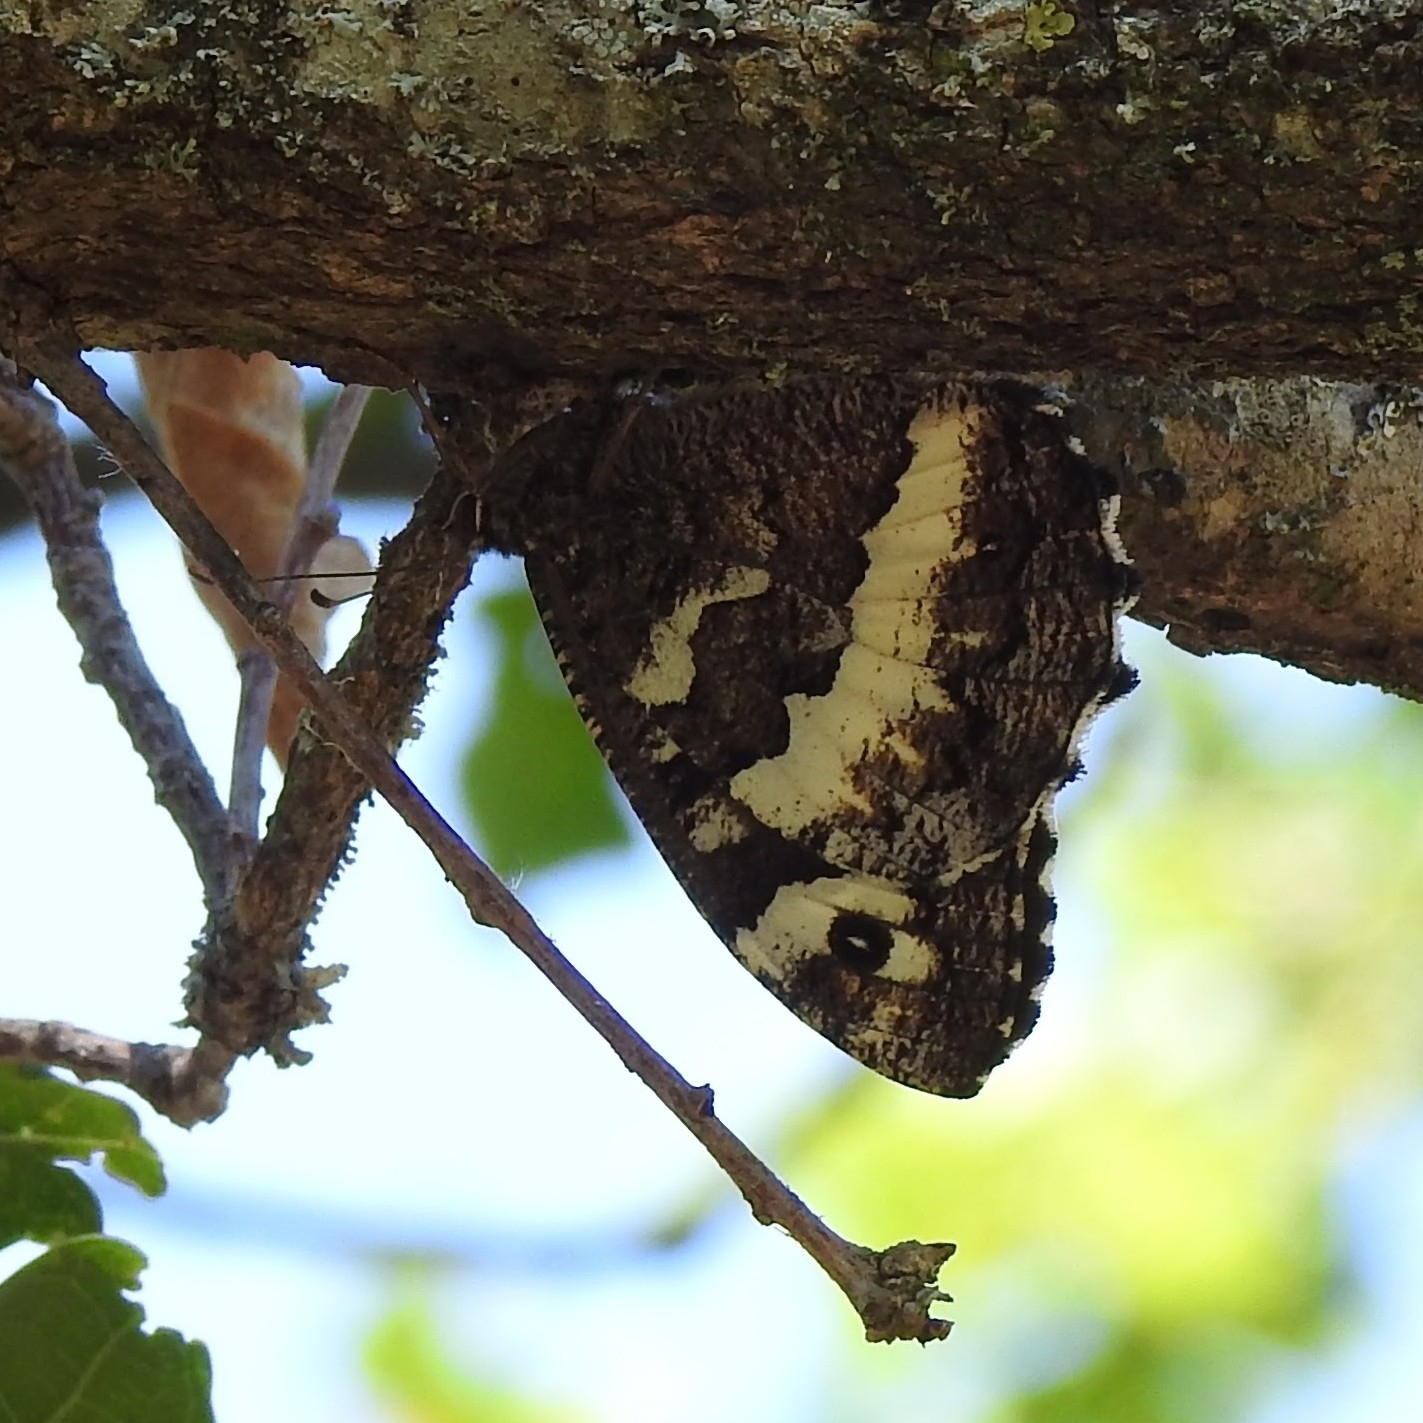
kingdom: Animalia
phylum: Arthropoda
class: Insecta
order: Lepidoptera
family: Lycaenidae
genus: Loweia
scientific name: Loweia tityrus
